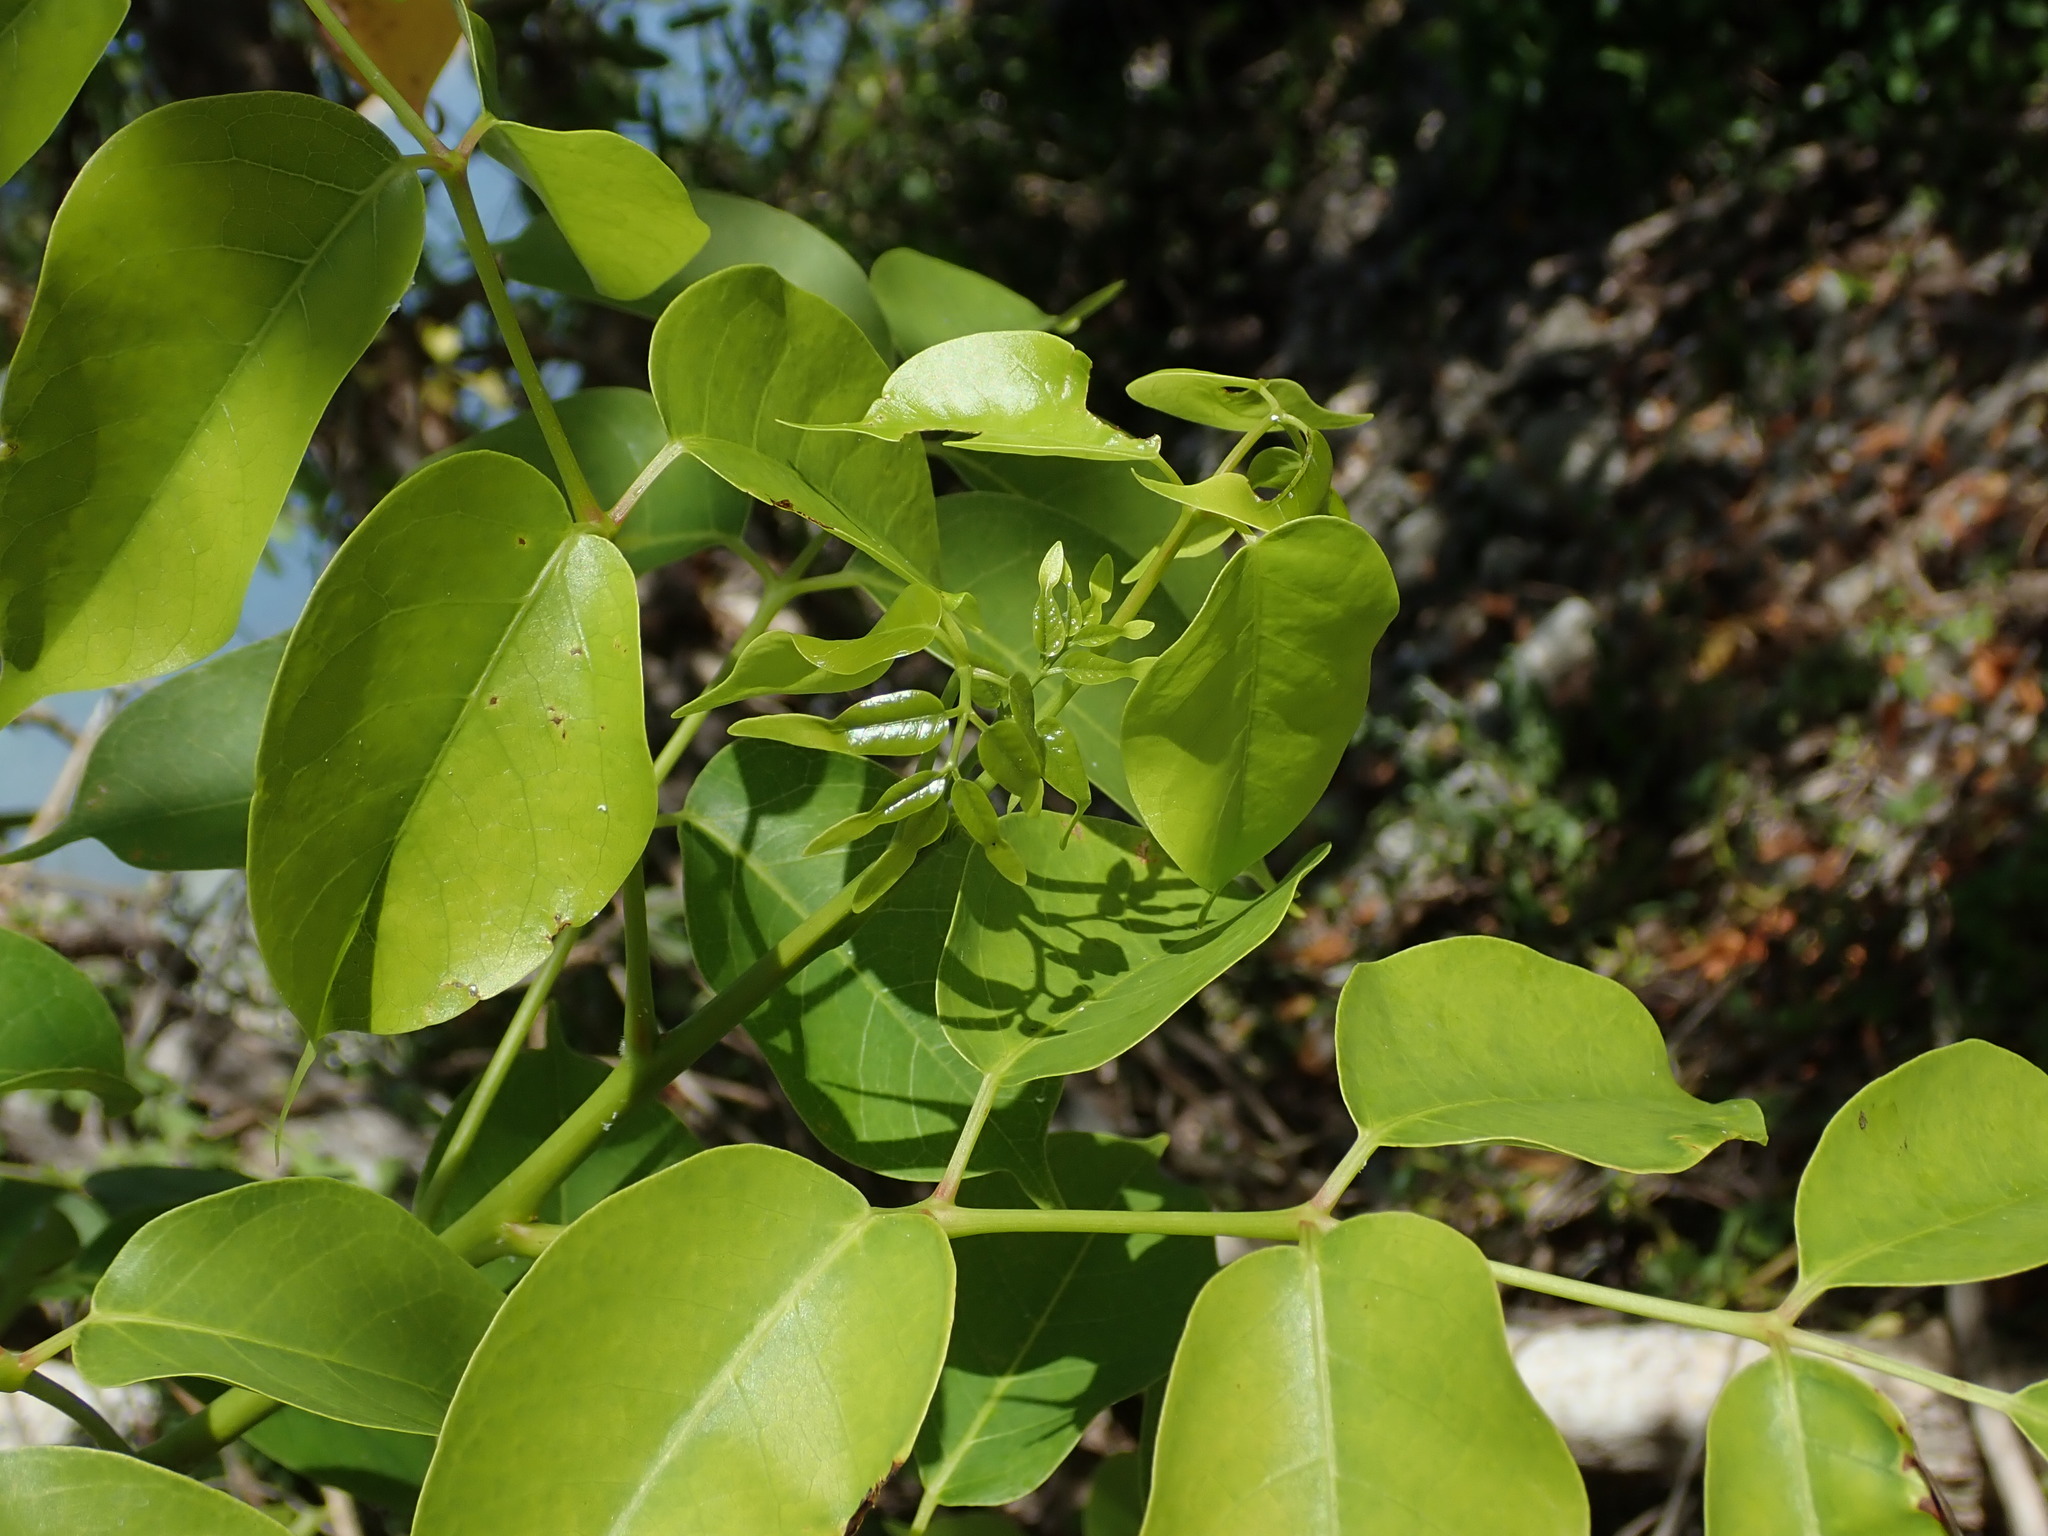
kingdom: Plantae
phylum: Tracheophyta
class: Magnoliopsida
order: Sapindales
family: Burseraceae
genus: Bursera
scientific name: Bursera simaruba
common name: Turpentine tree
